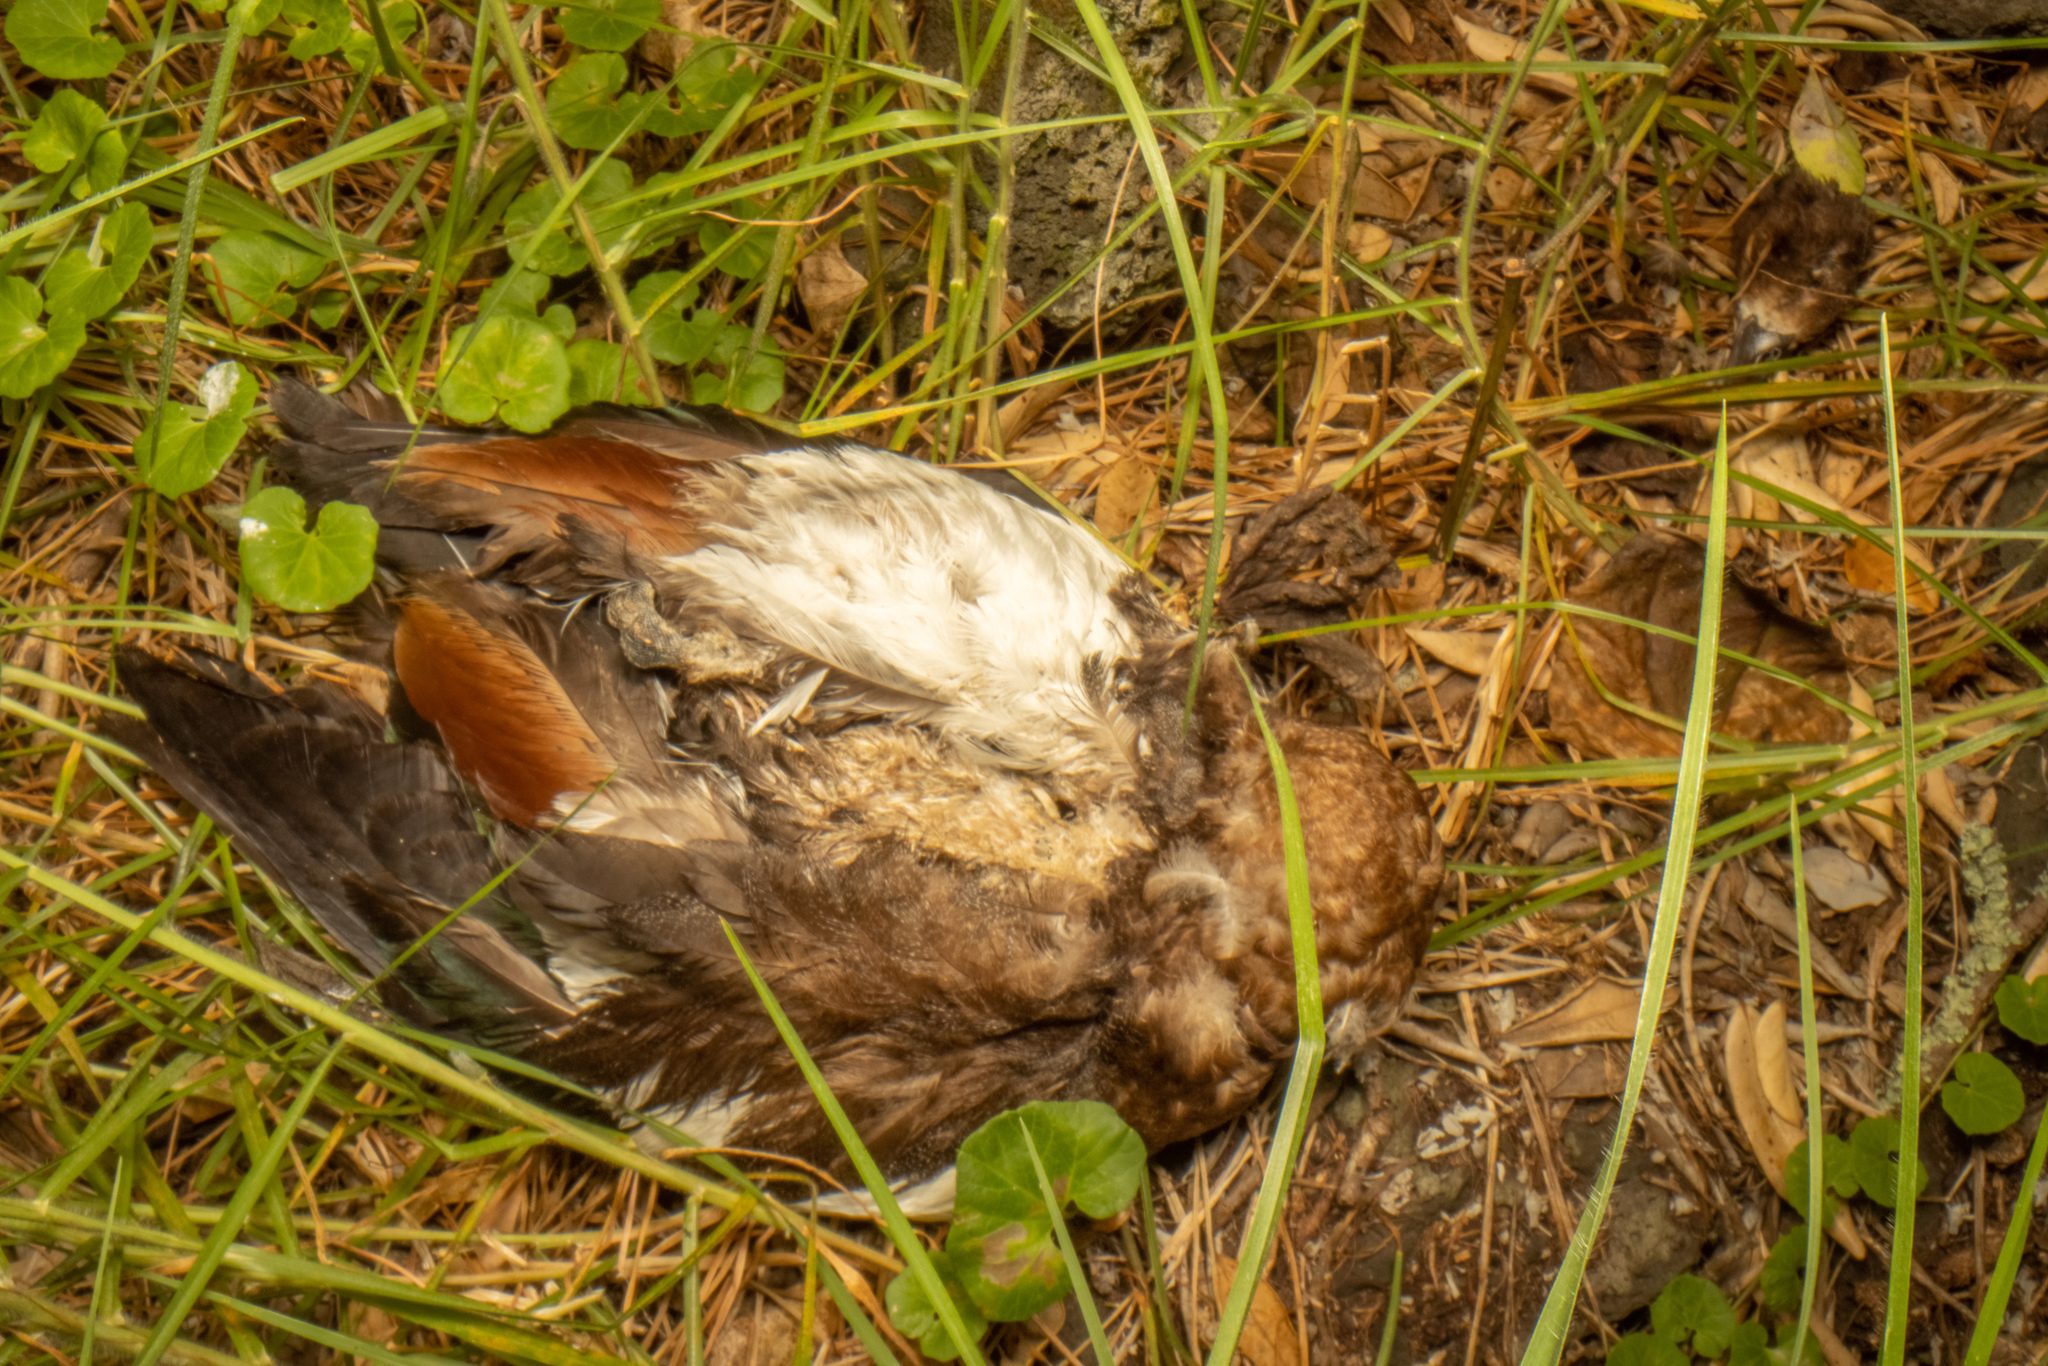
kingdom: Animalia
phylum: Chordata
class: Aves
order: Anseriformes
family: Anatidae
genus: Tadorna
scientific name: Tadorna variegata
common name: Paradise shelduck
